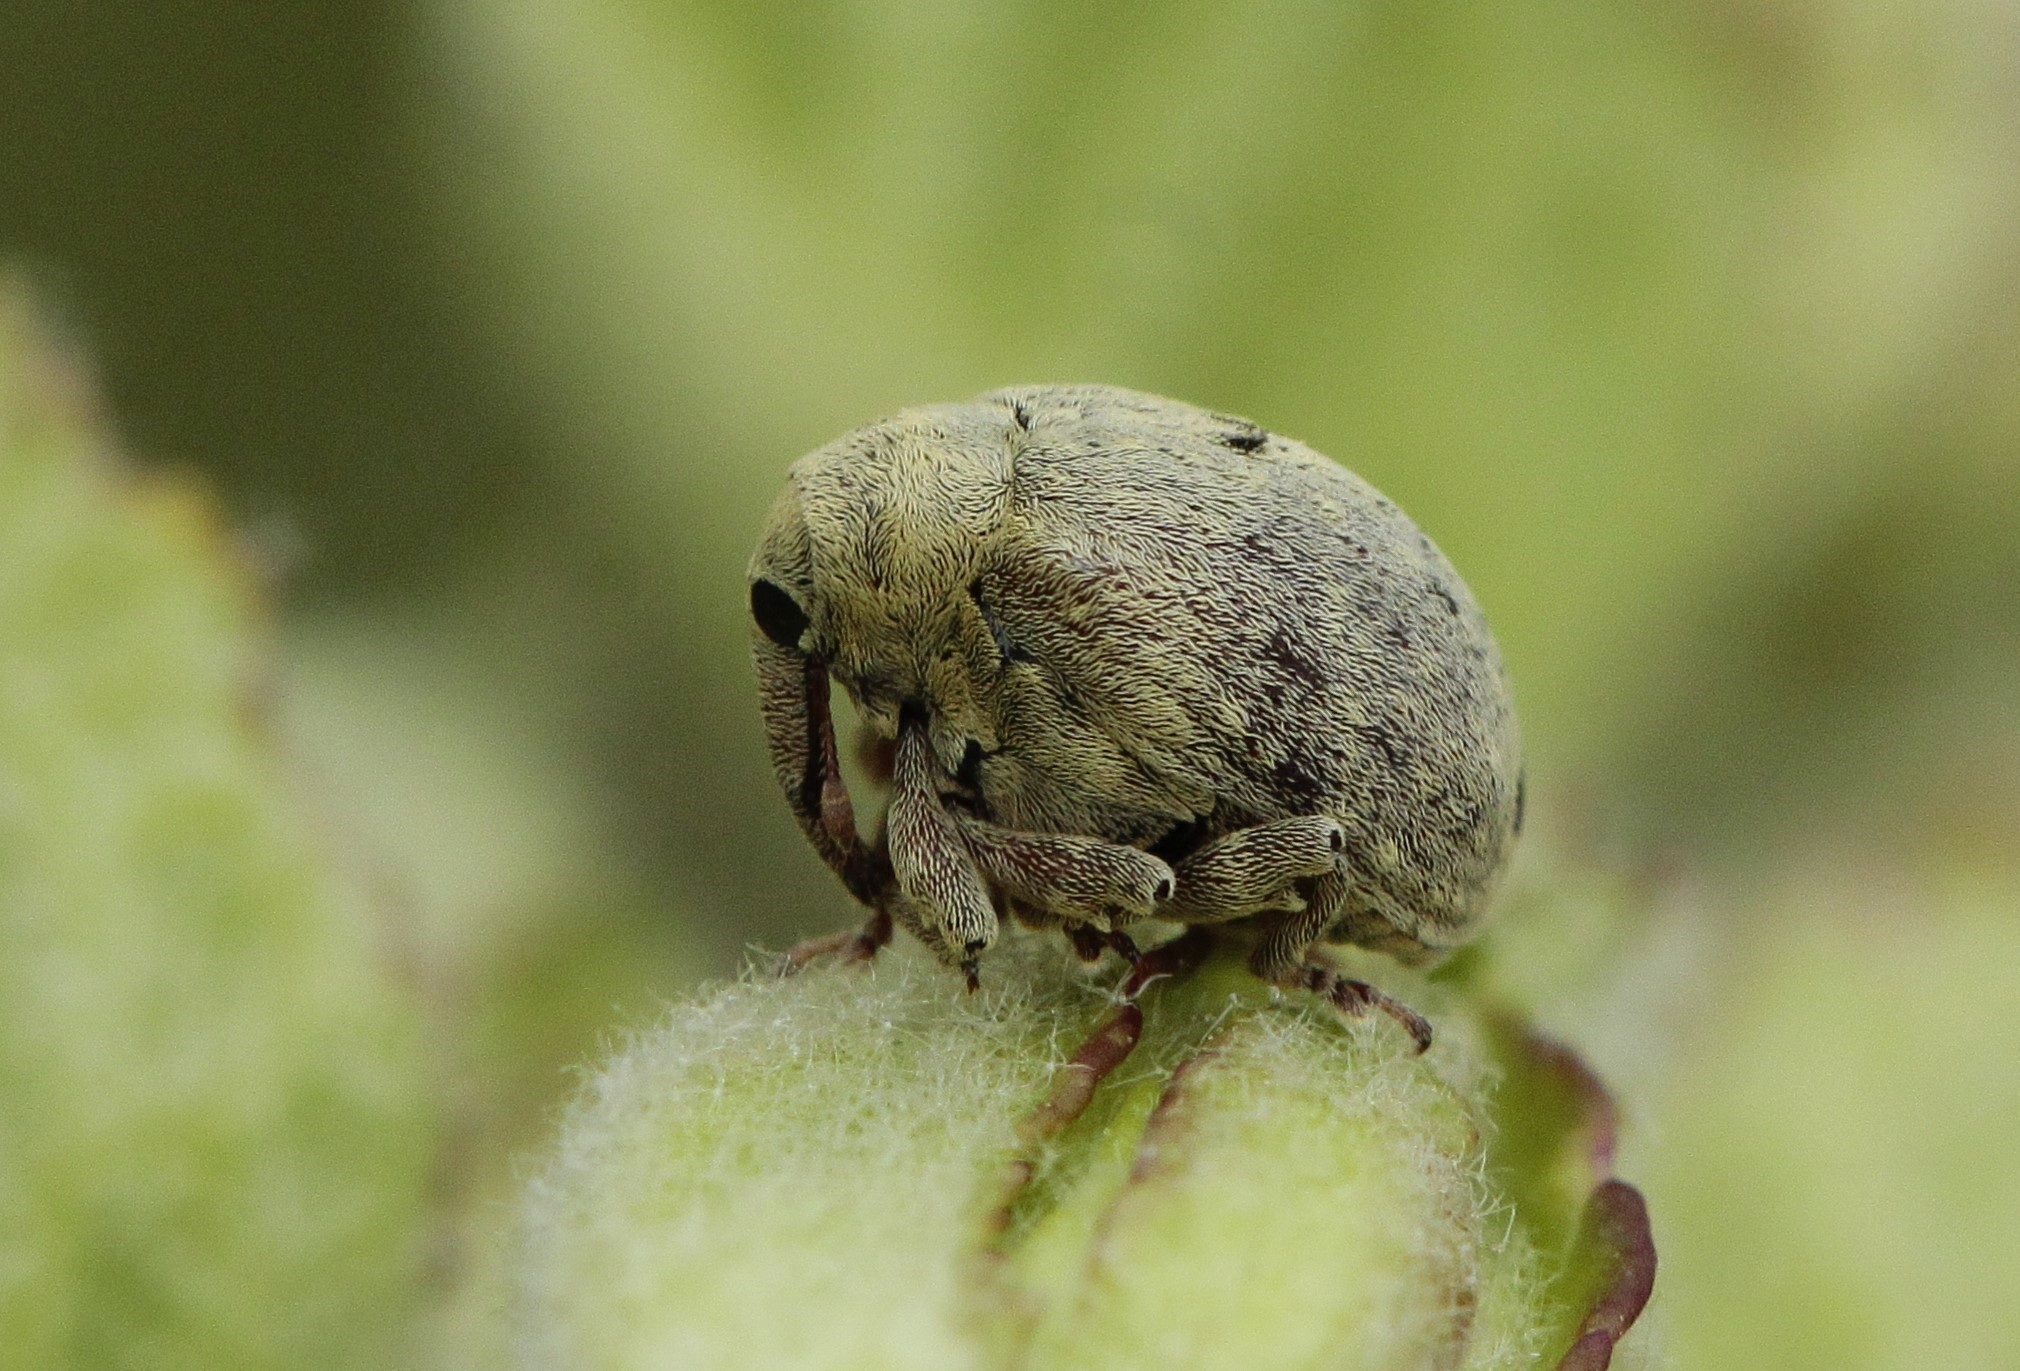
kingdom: Animalia
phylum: Arthropoda
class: Insecta
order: Coleoptera
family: Curculionidae
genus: Cionus
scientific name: Cionus thapsus
